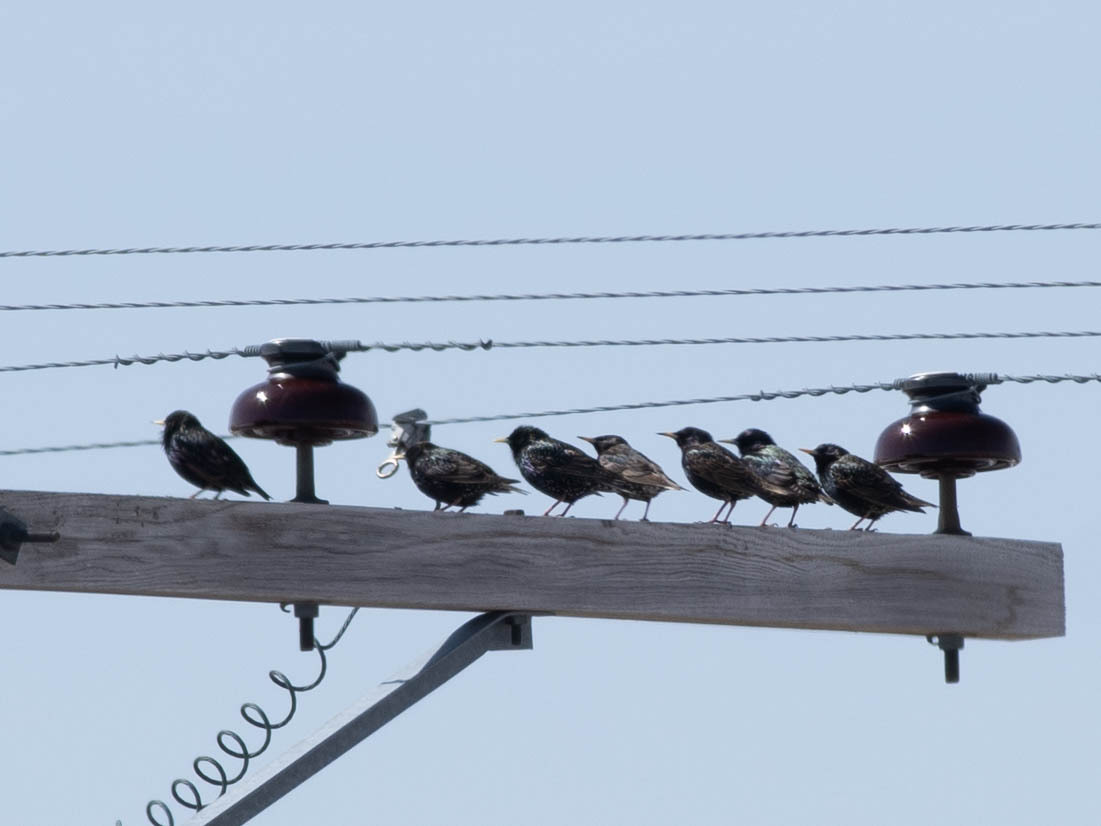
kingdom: Animalia
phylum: Chordata
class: Aves
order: Passeriformes
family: Sturnidae
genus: Sturnus
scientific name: Sturnus vulgaris
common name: Common starling
